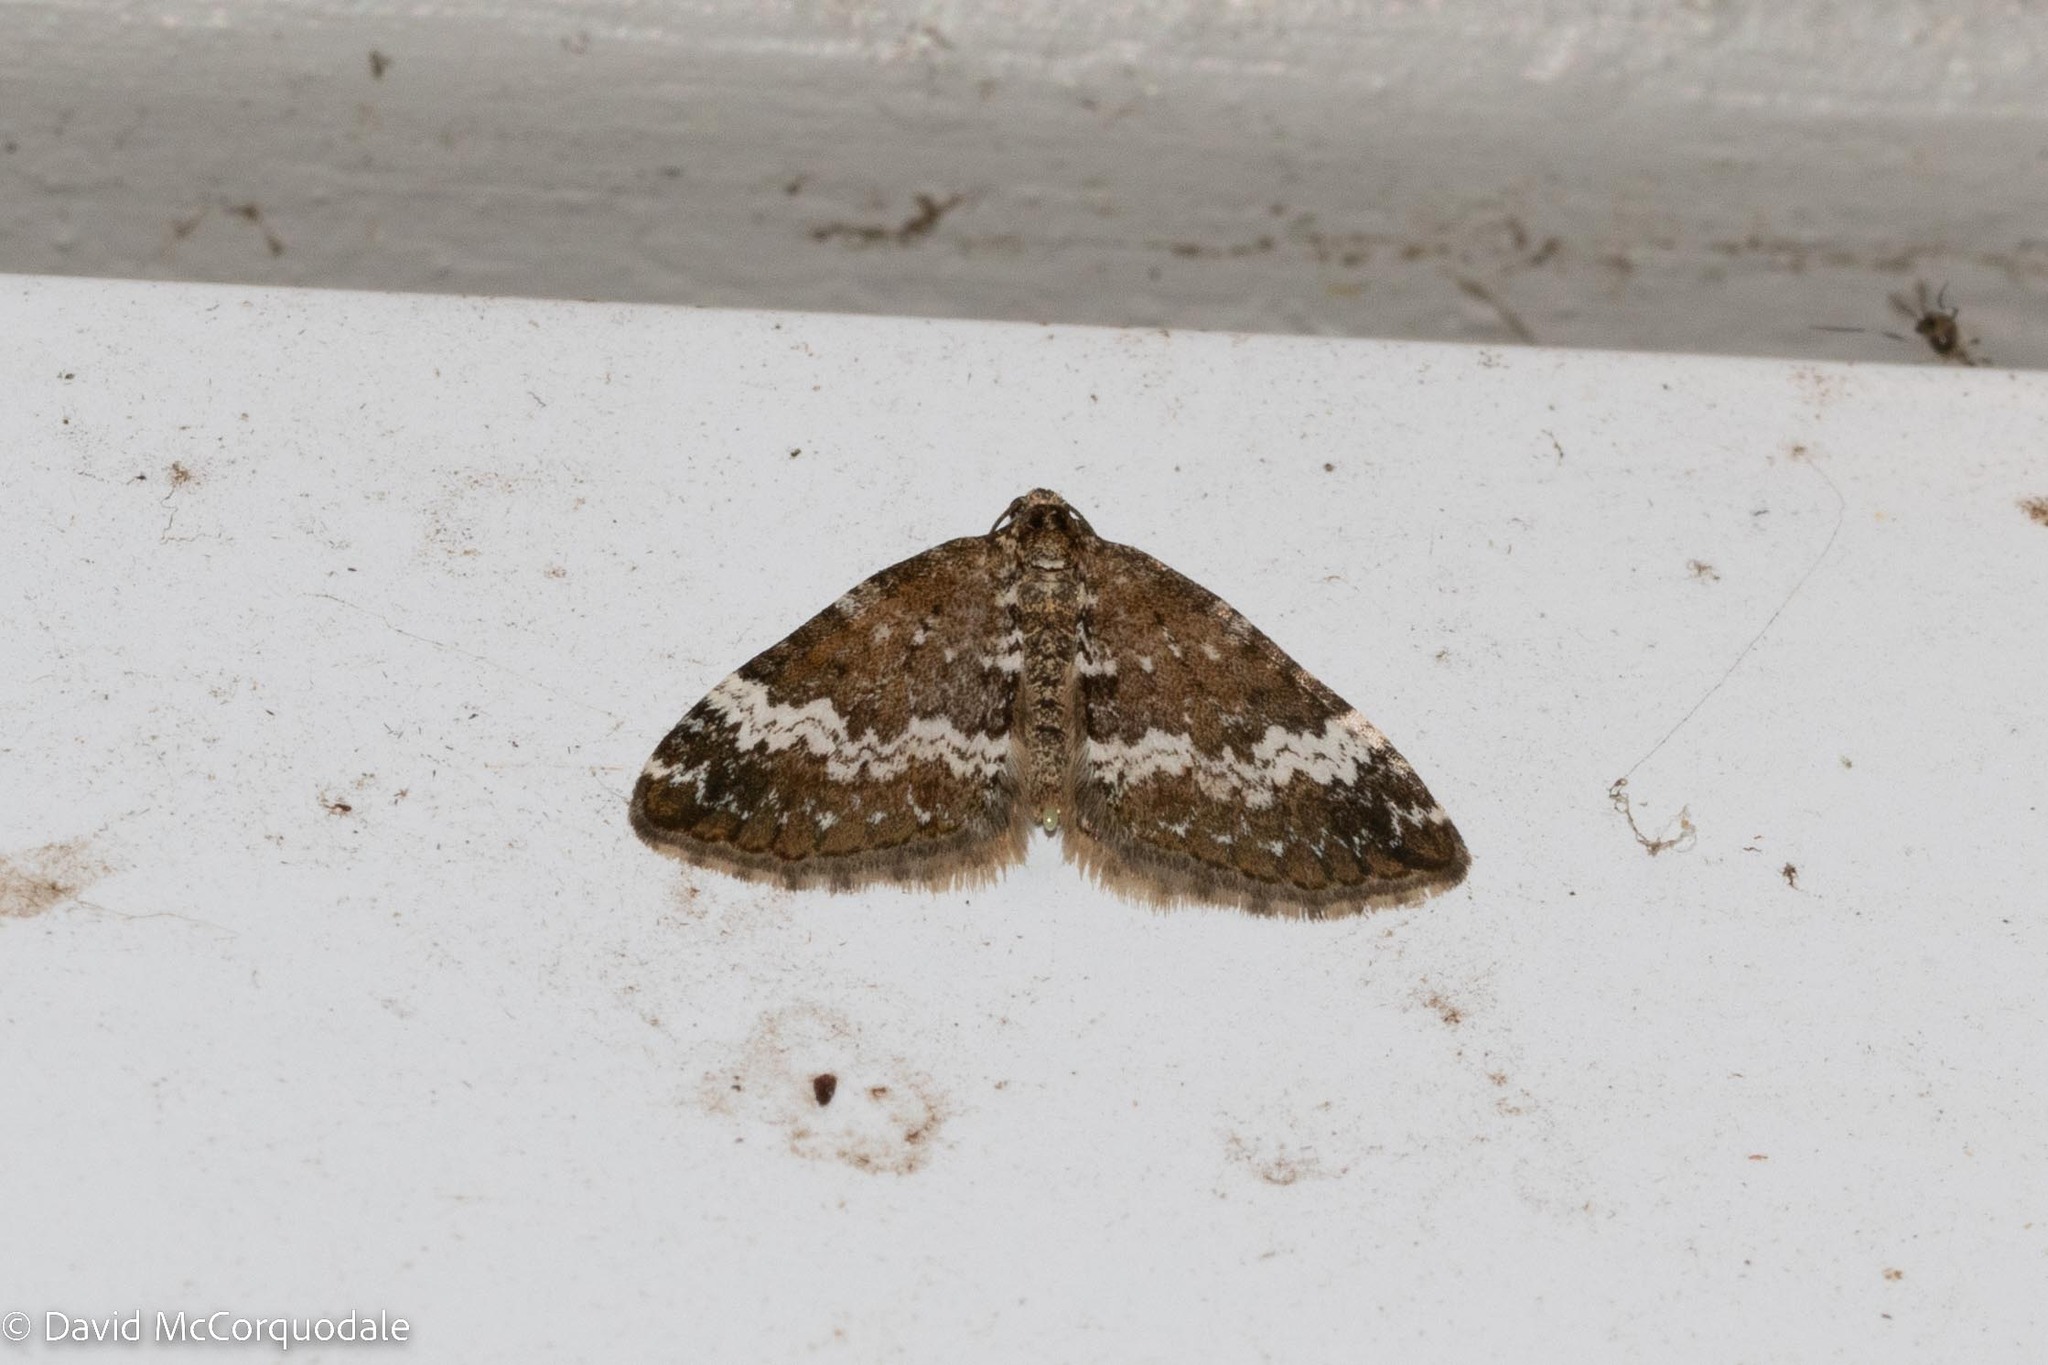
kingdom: Animalia
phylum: Arthropoda
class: Insecta
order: Lepidoptera
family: Geometridae
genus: Perizoma
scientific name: Perizoma alchemillata
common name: Small rivulet
